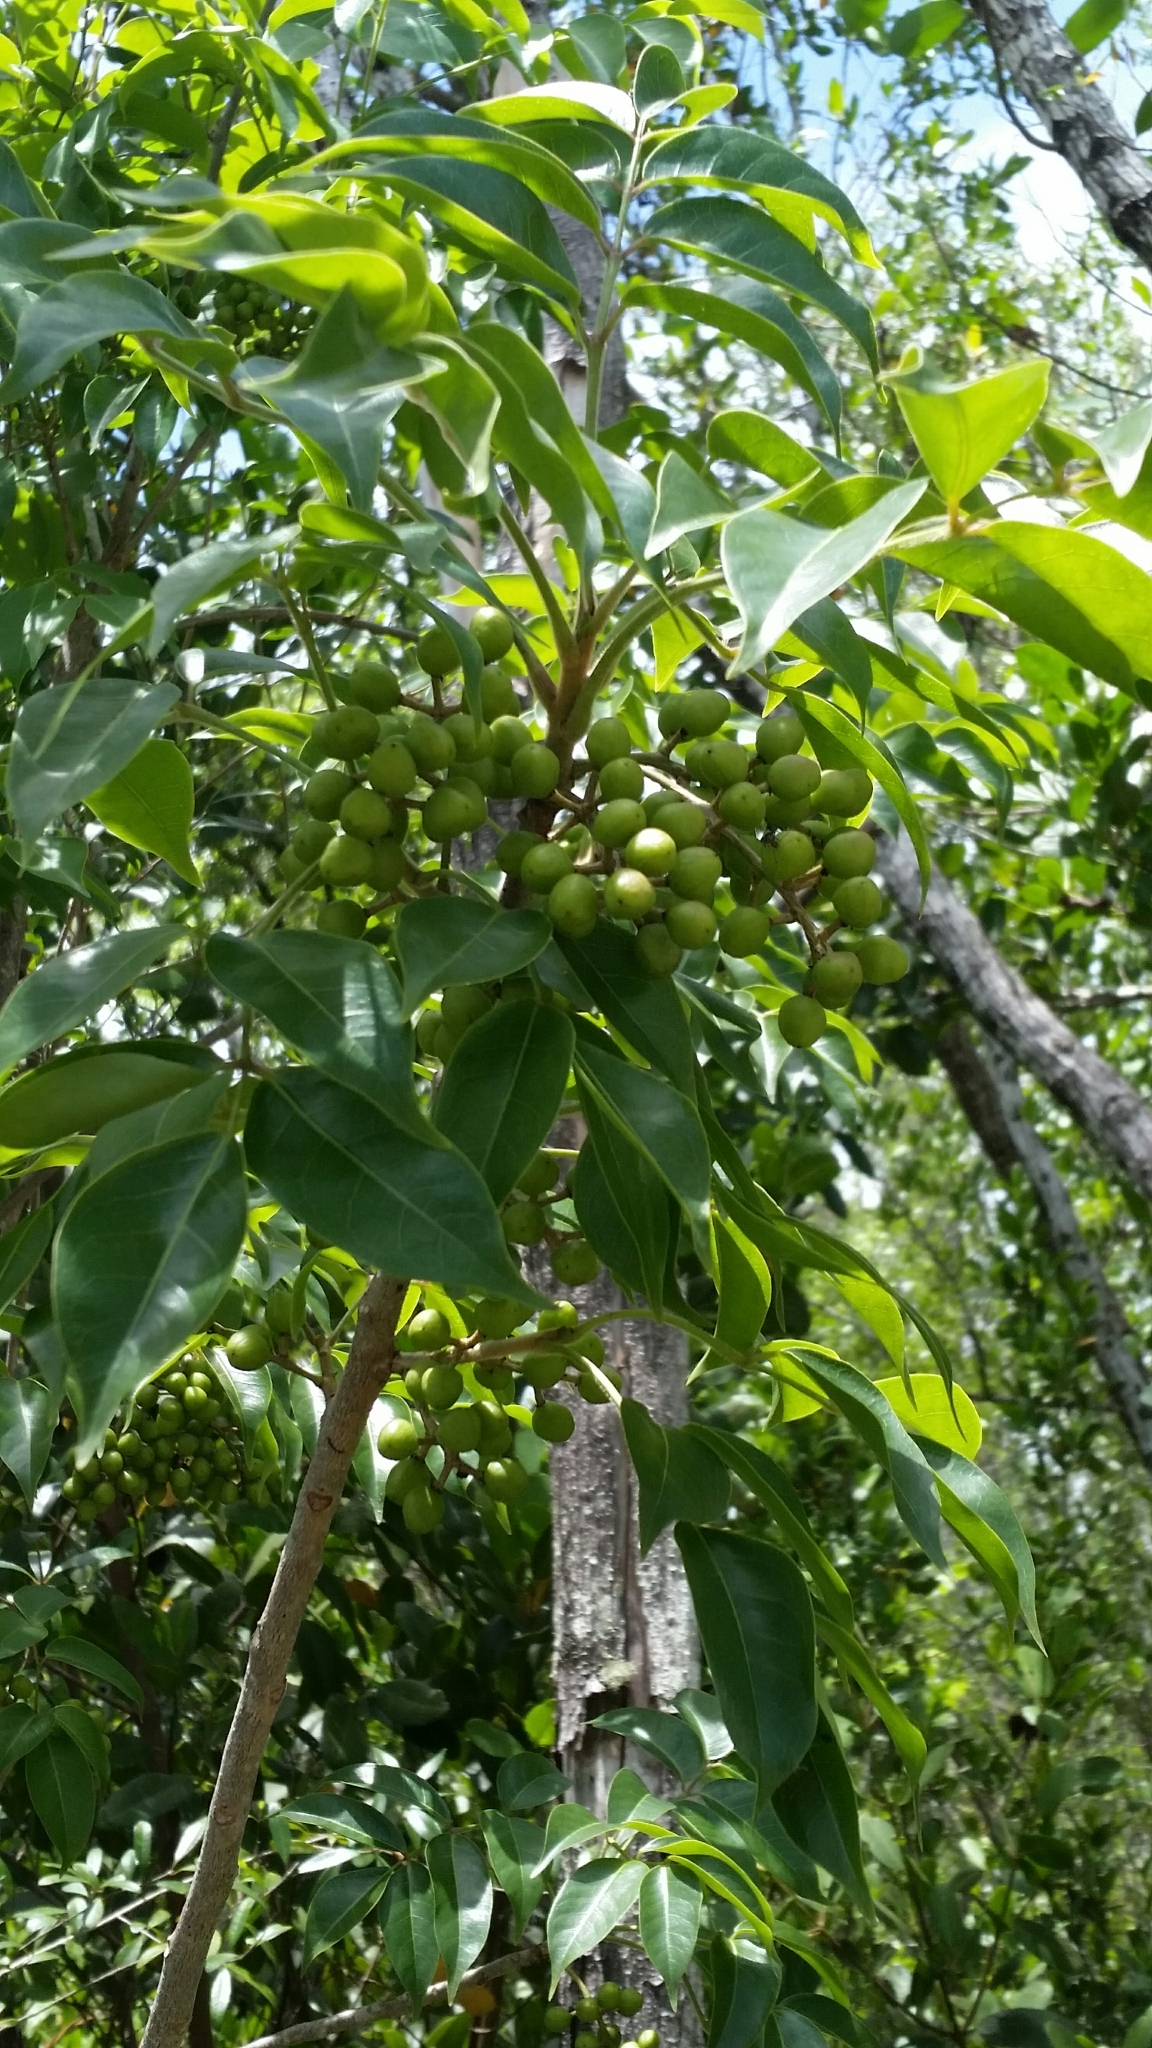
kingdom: Plantae
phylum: Tracheophyta
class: Magnoliopsida
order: Sapindales
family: Burseraceae
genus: Bursera
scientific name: Bursera simaruba
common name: Turpentine tree
